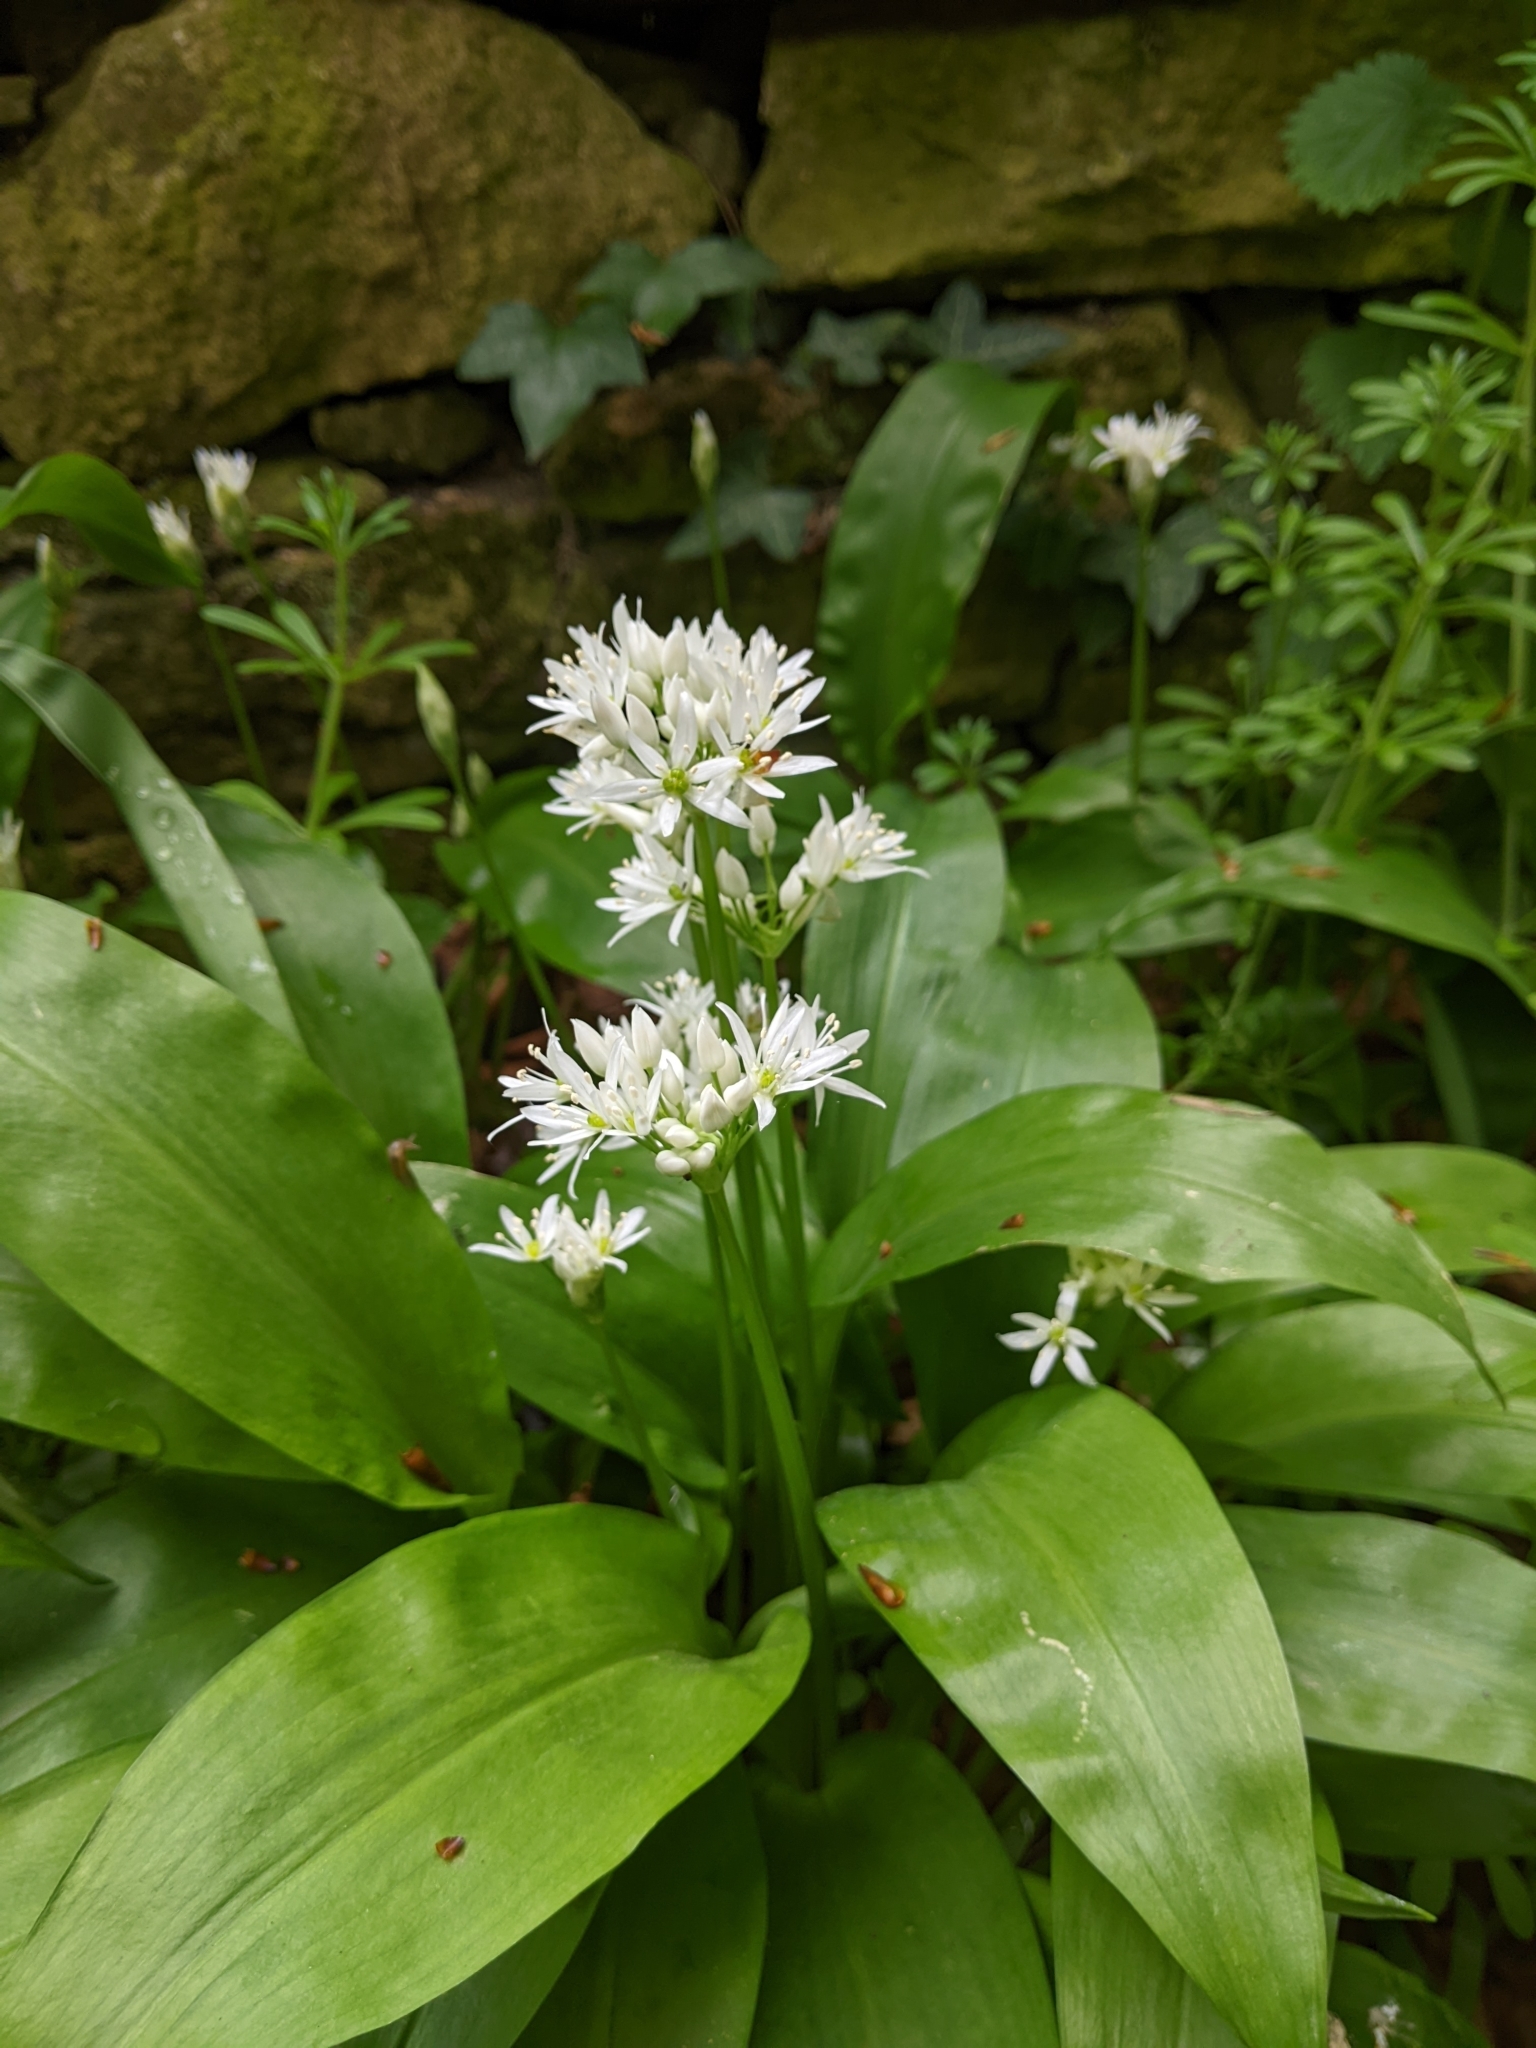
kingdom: Plantae
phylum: Tracheophyta
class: Liliopsida
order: Asparagales
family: Amaryllidaceae
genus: Allium
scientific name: Allium ursinum
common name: Ramsons
